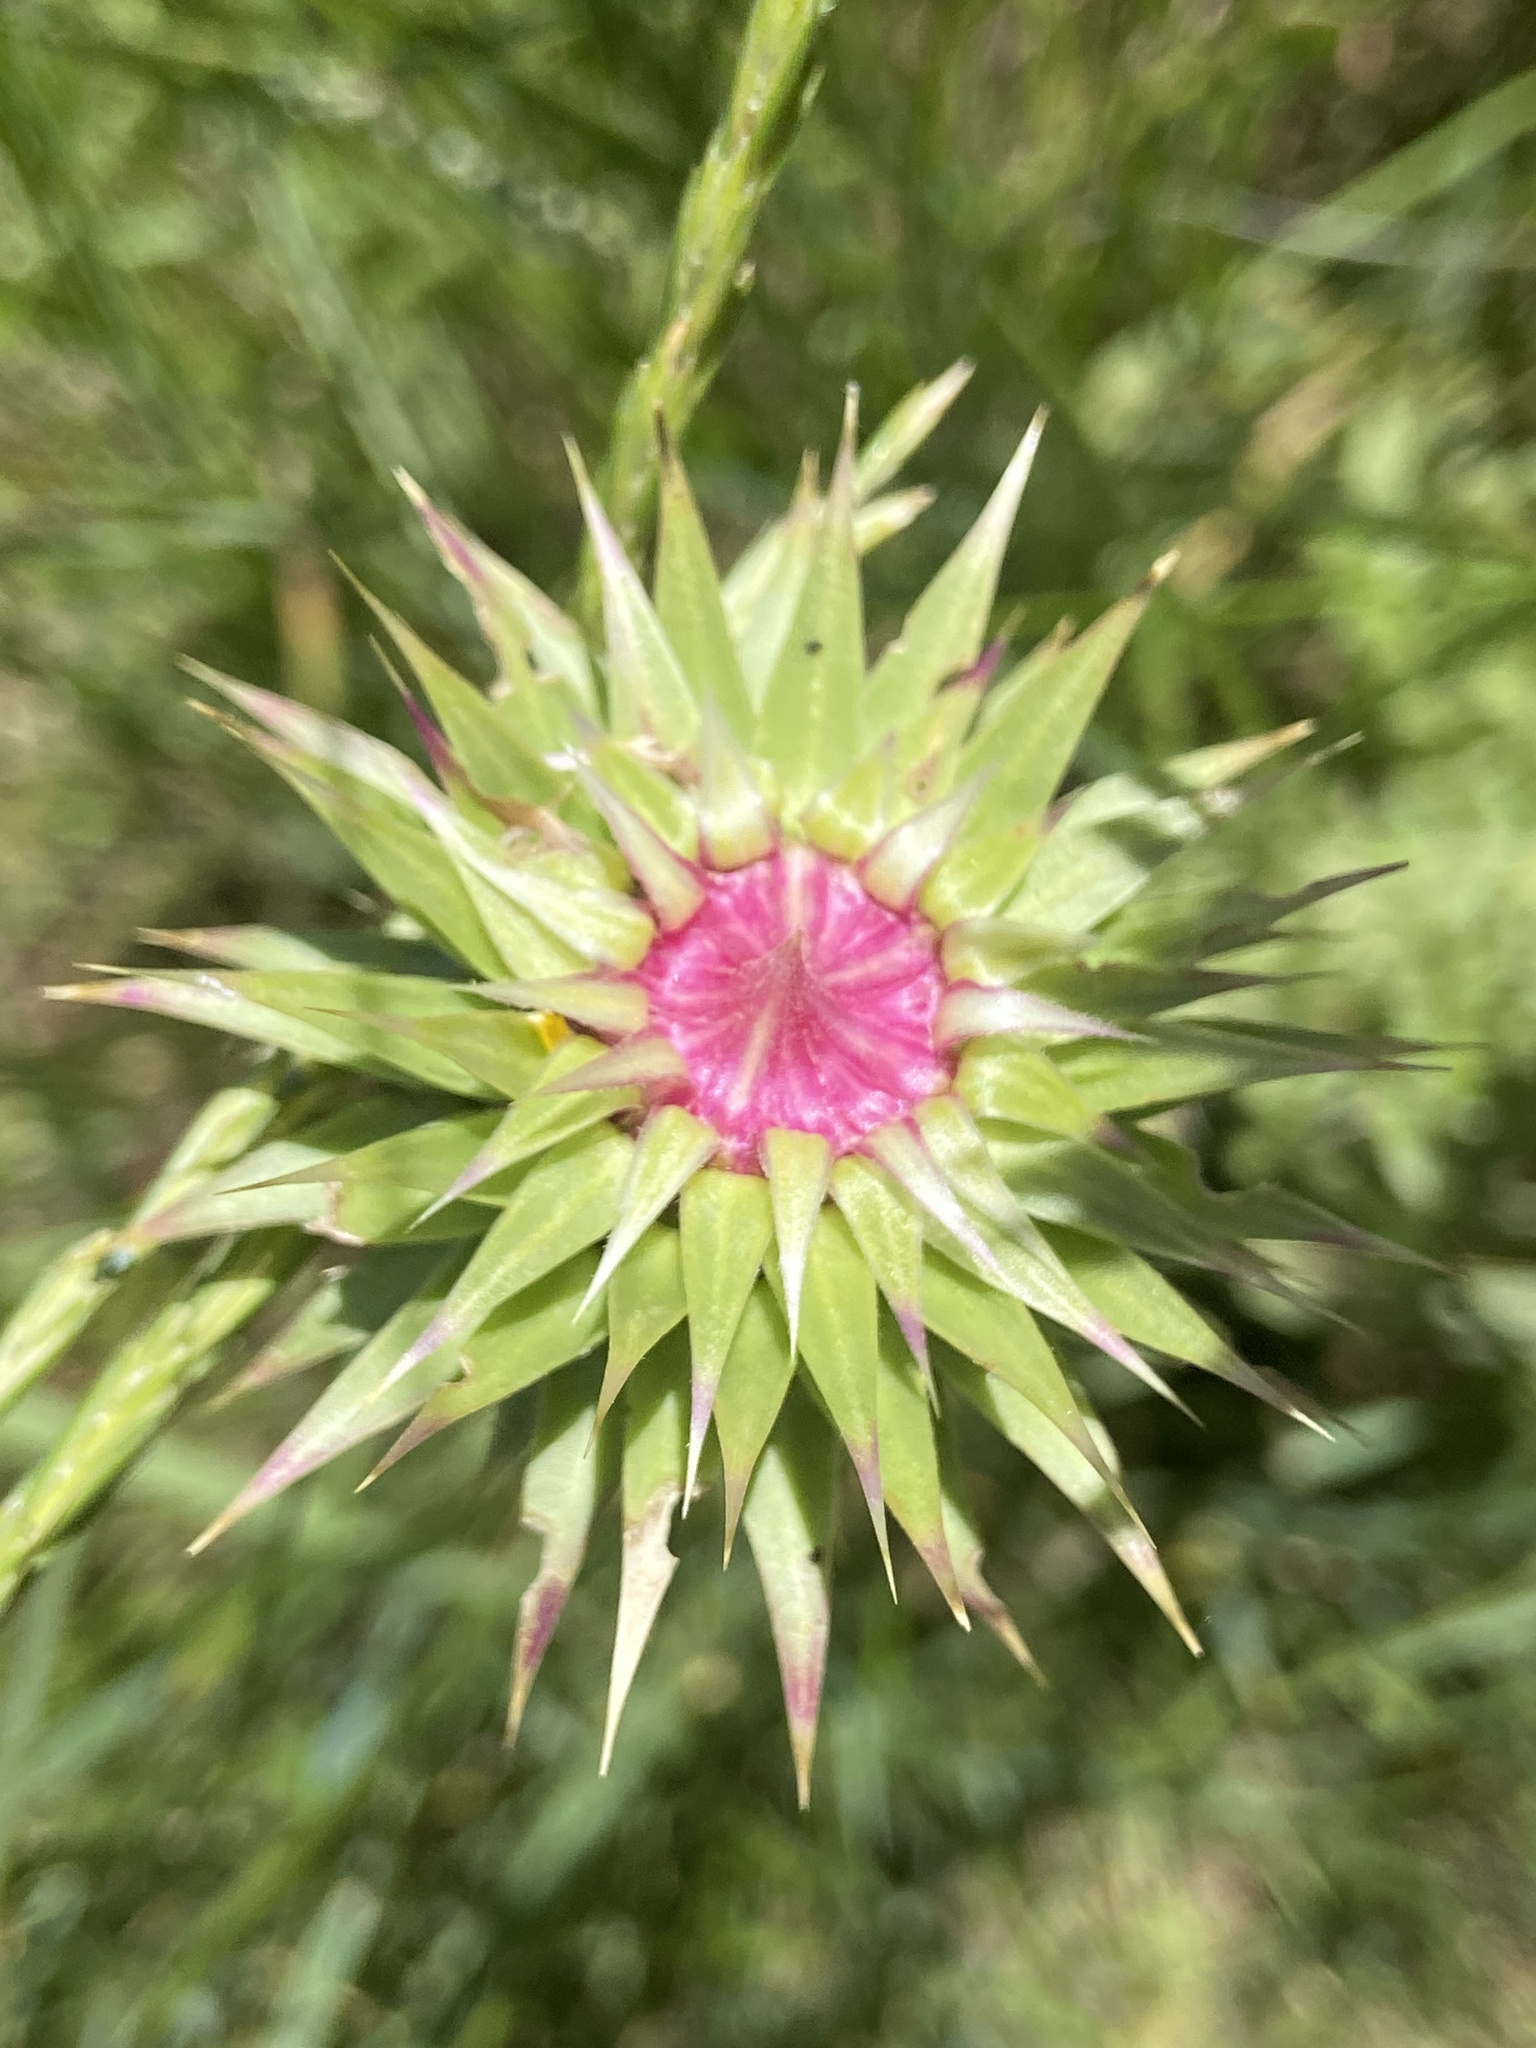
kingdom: Plantae
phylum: Tracheophyta
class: Magnoliopsida
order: Asterales
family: Asteraceae
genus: Carduus
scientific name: Carduus nutans
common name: Musk thistle
